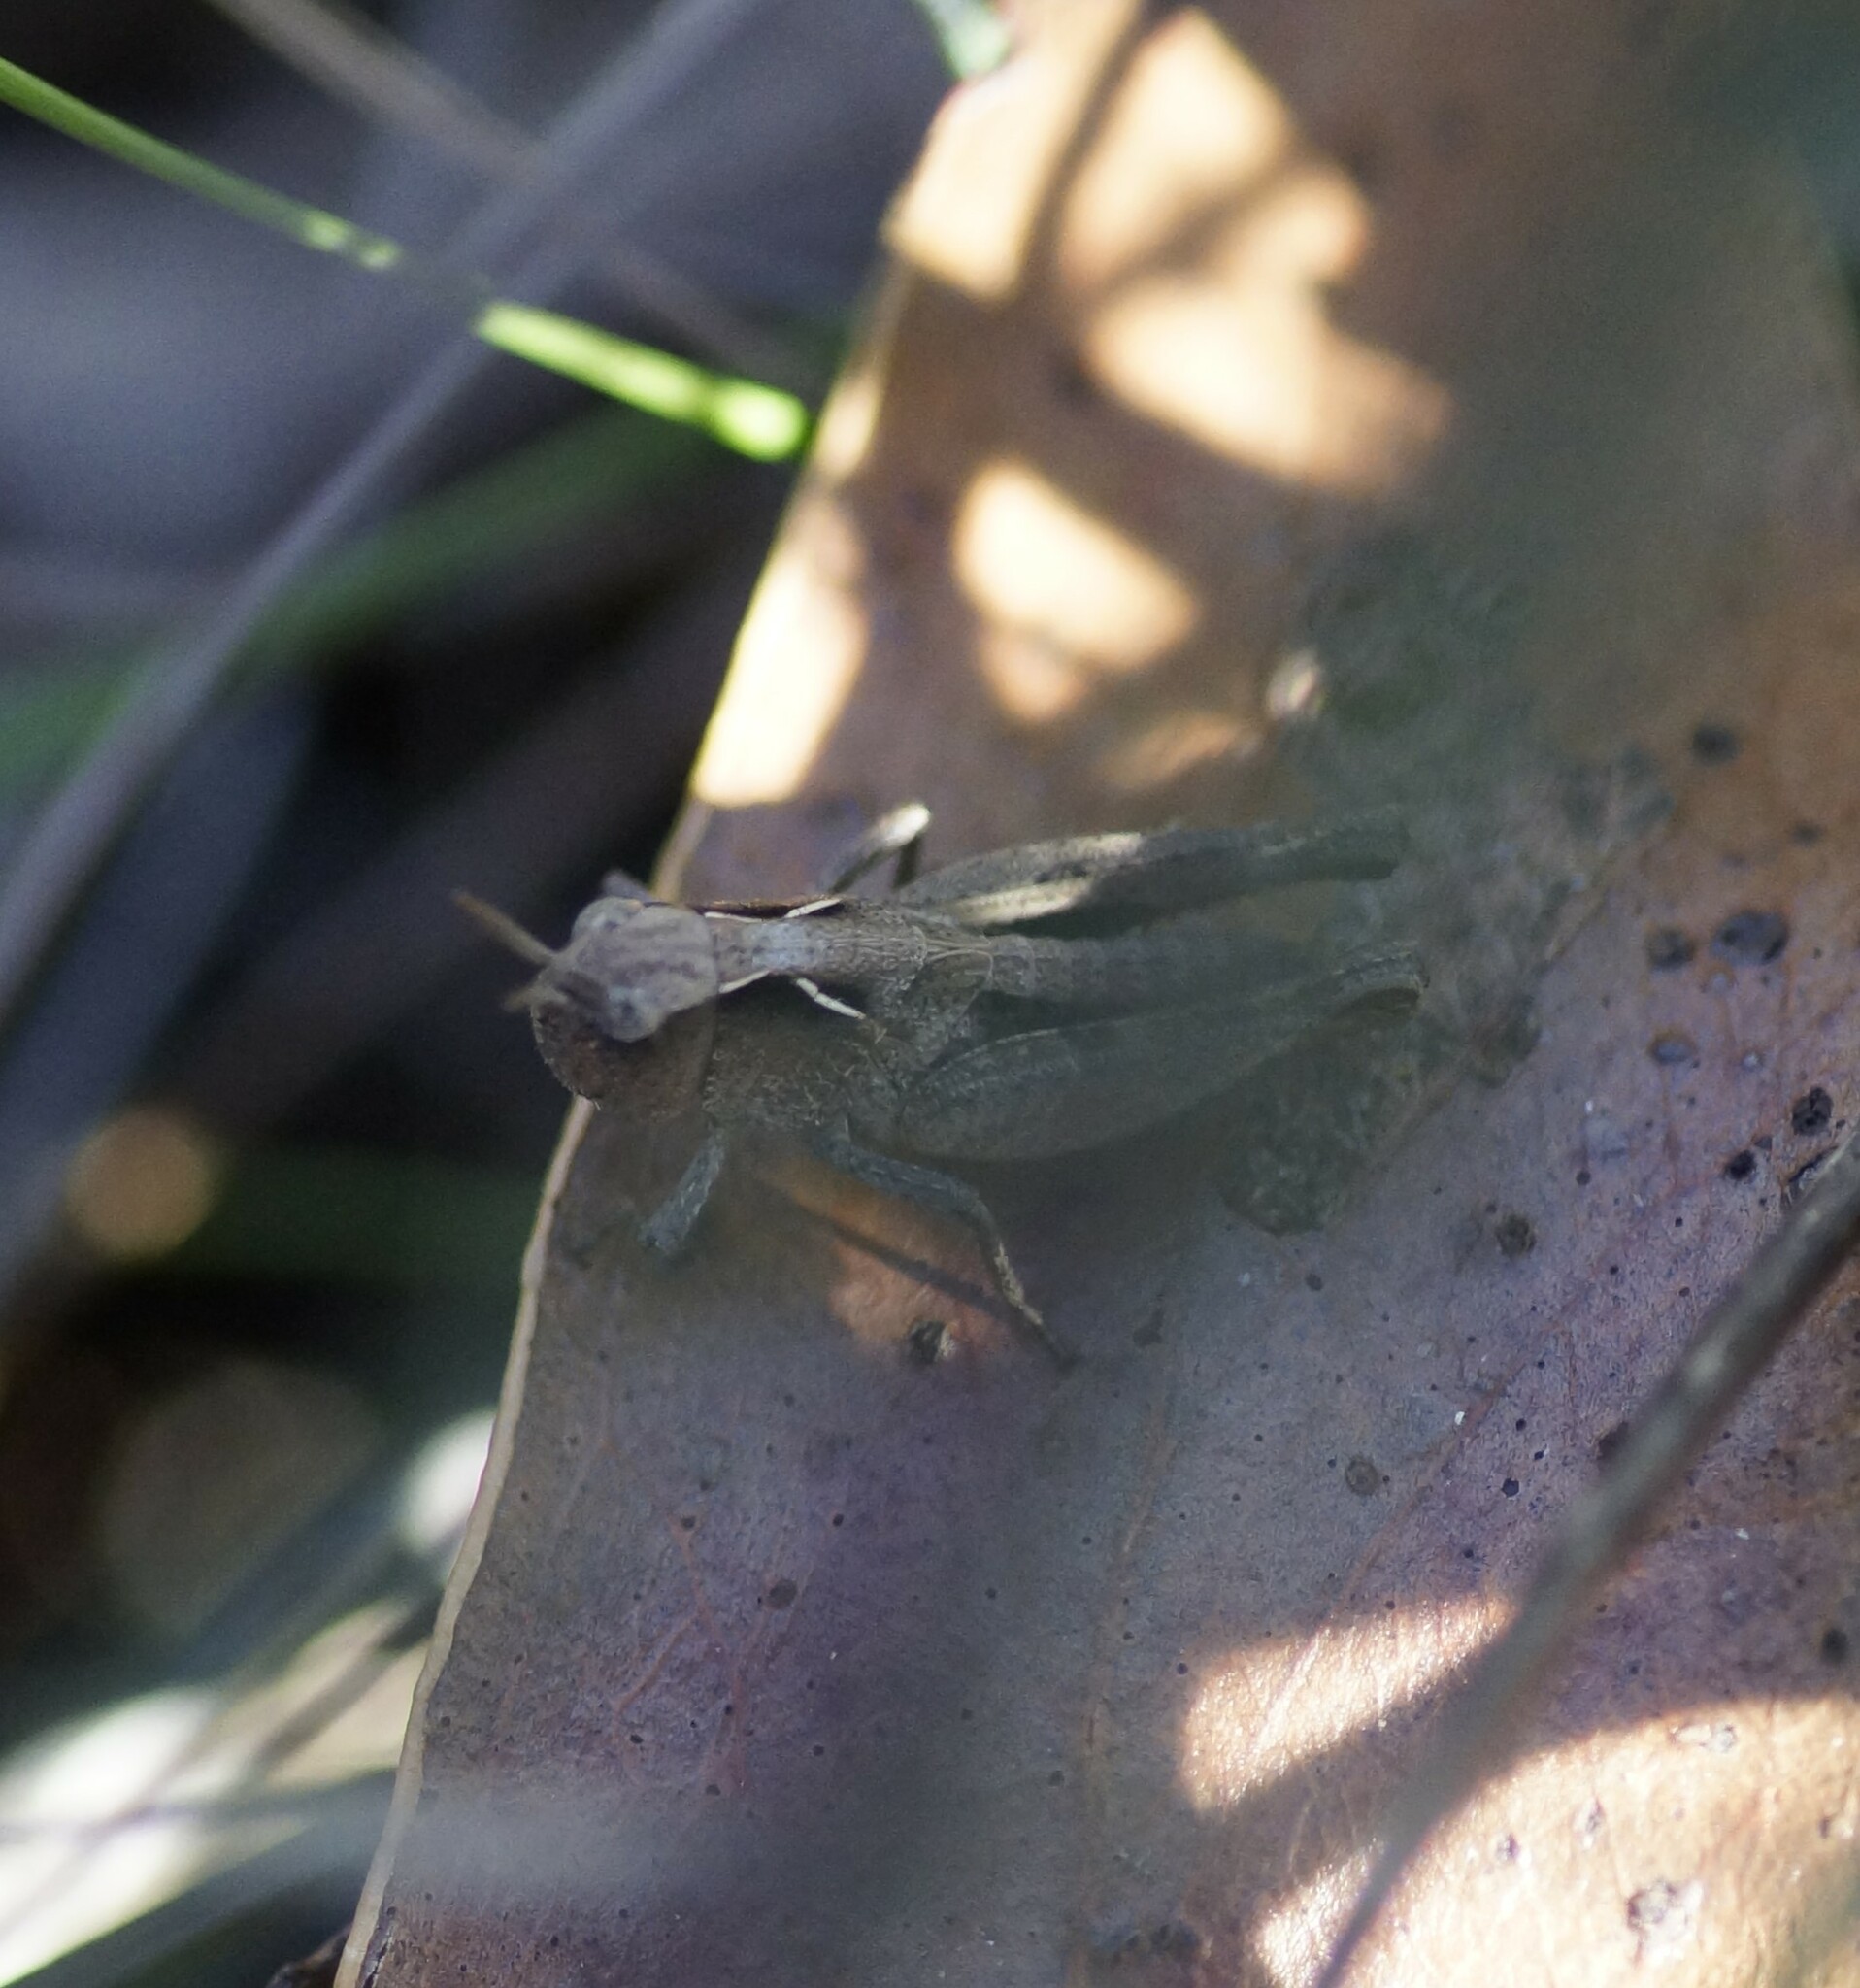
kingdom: Animalia
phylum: Arthropoda
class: Insecta
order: Orthoptera
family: Acrididae
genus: Cryptobothrus
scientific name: Cryptobothrus chrysophorus
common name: Golden bandwing
